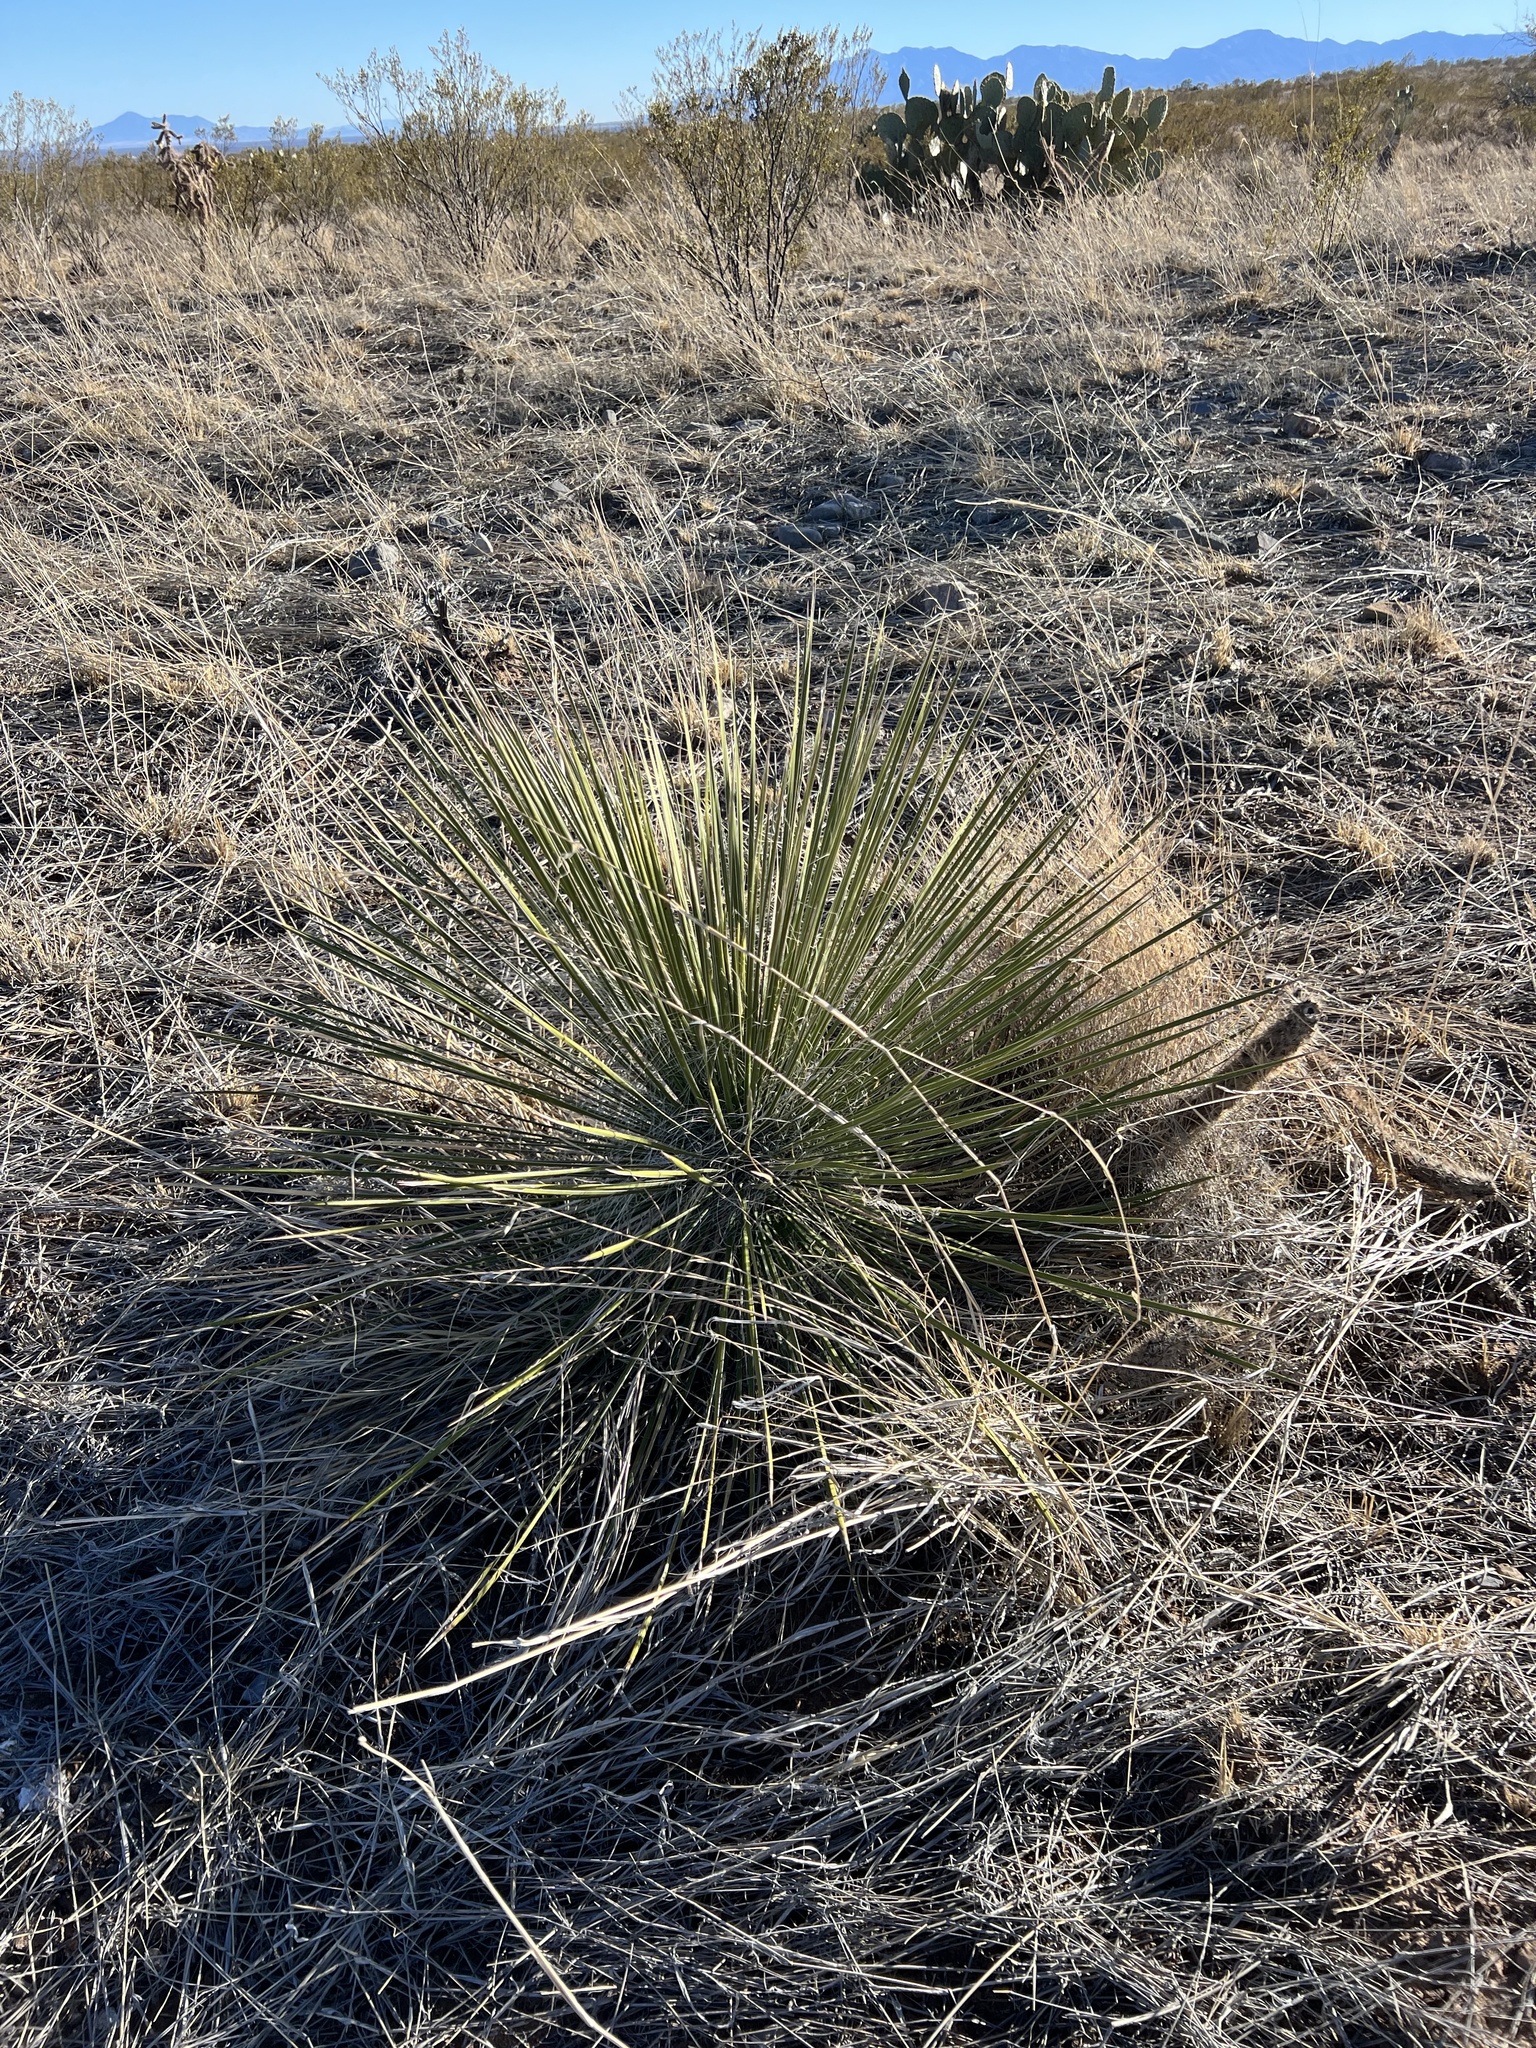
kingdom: Plantae
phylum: Tracheophyta
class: Liliopsida
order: Asparagales
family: Asparagaceae
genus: Yucca
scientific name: Yucca elata
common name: Palmella
